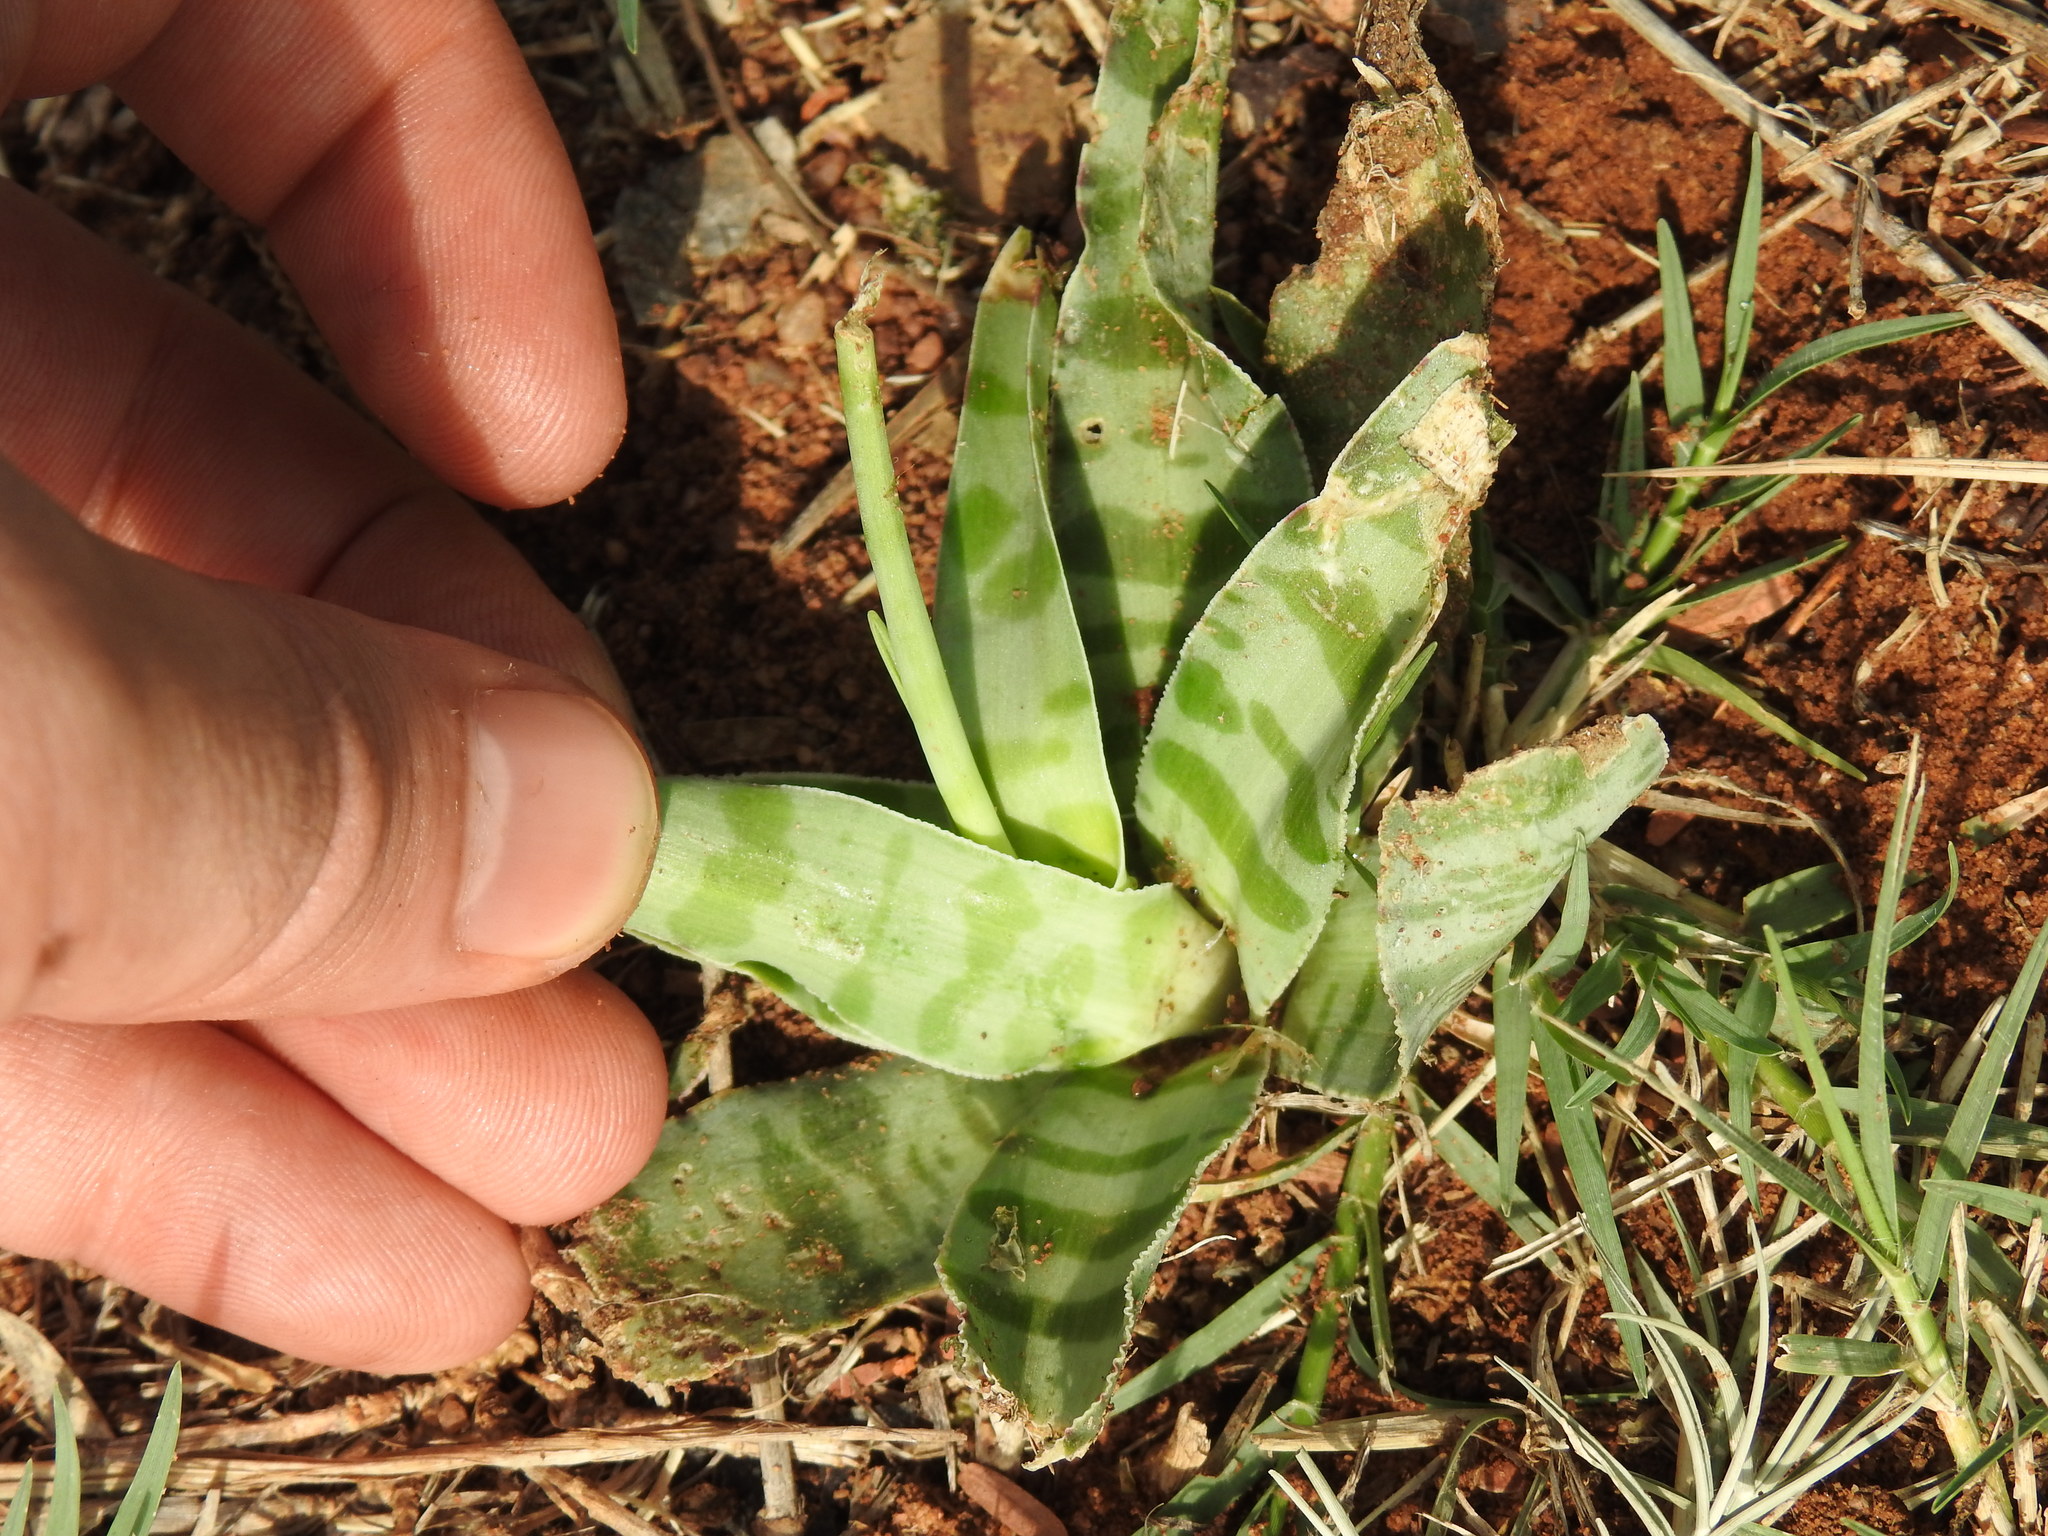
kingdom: Plantae
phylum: Tracheophyta
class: Liliopsida
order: Asparagales
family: Asparagaceae
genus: Ledebouria
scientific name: Ledebouria luteola
